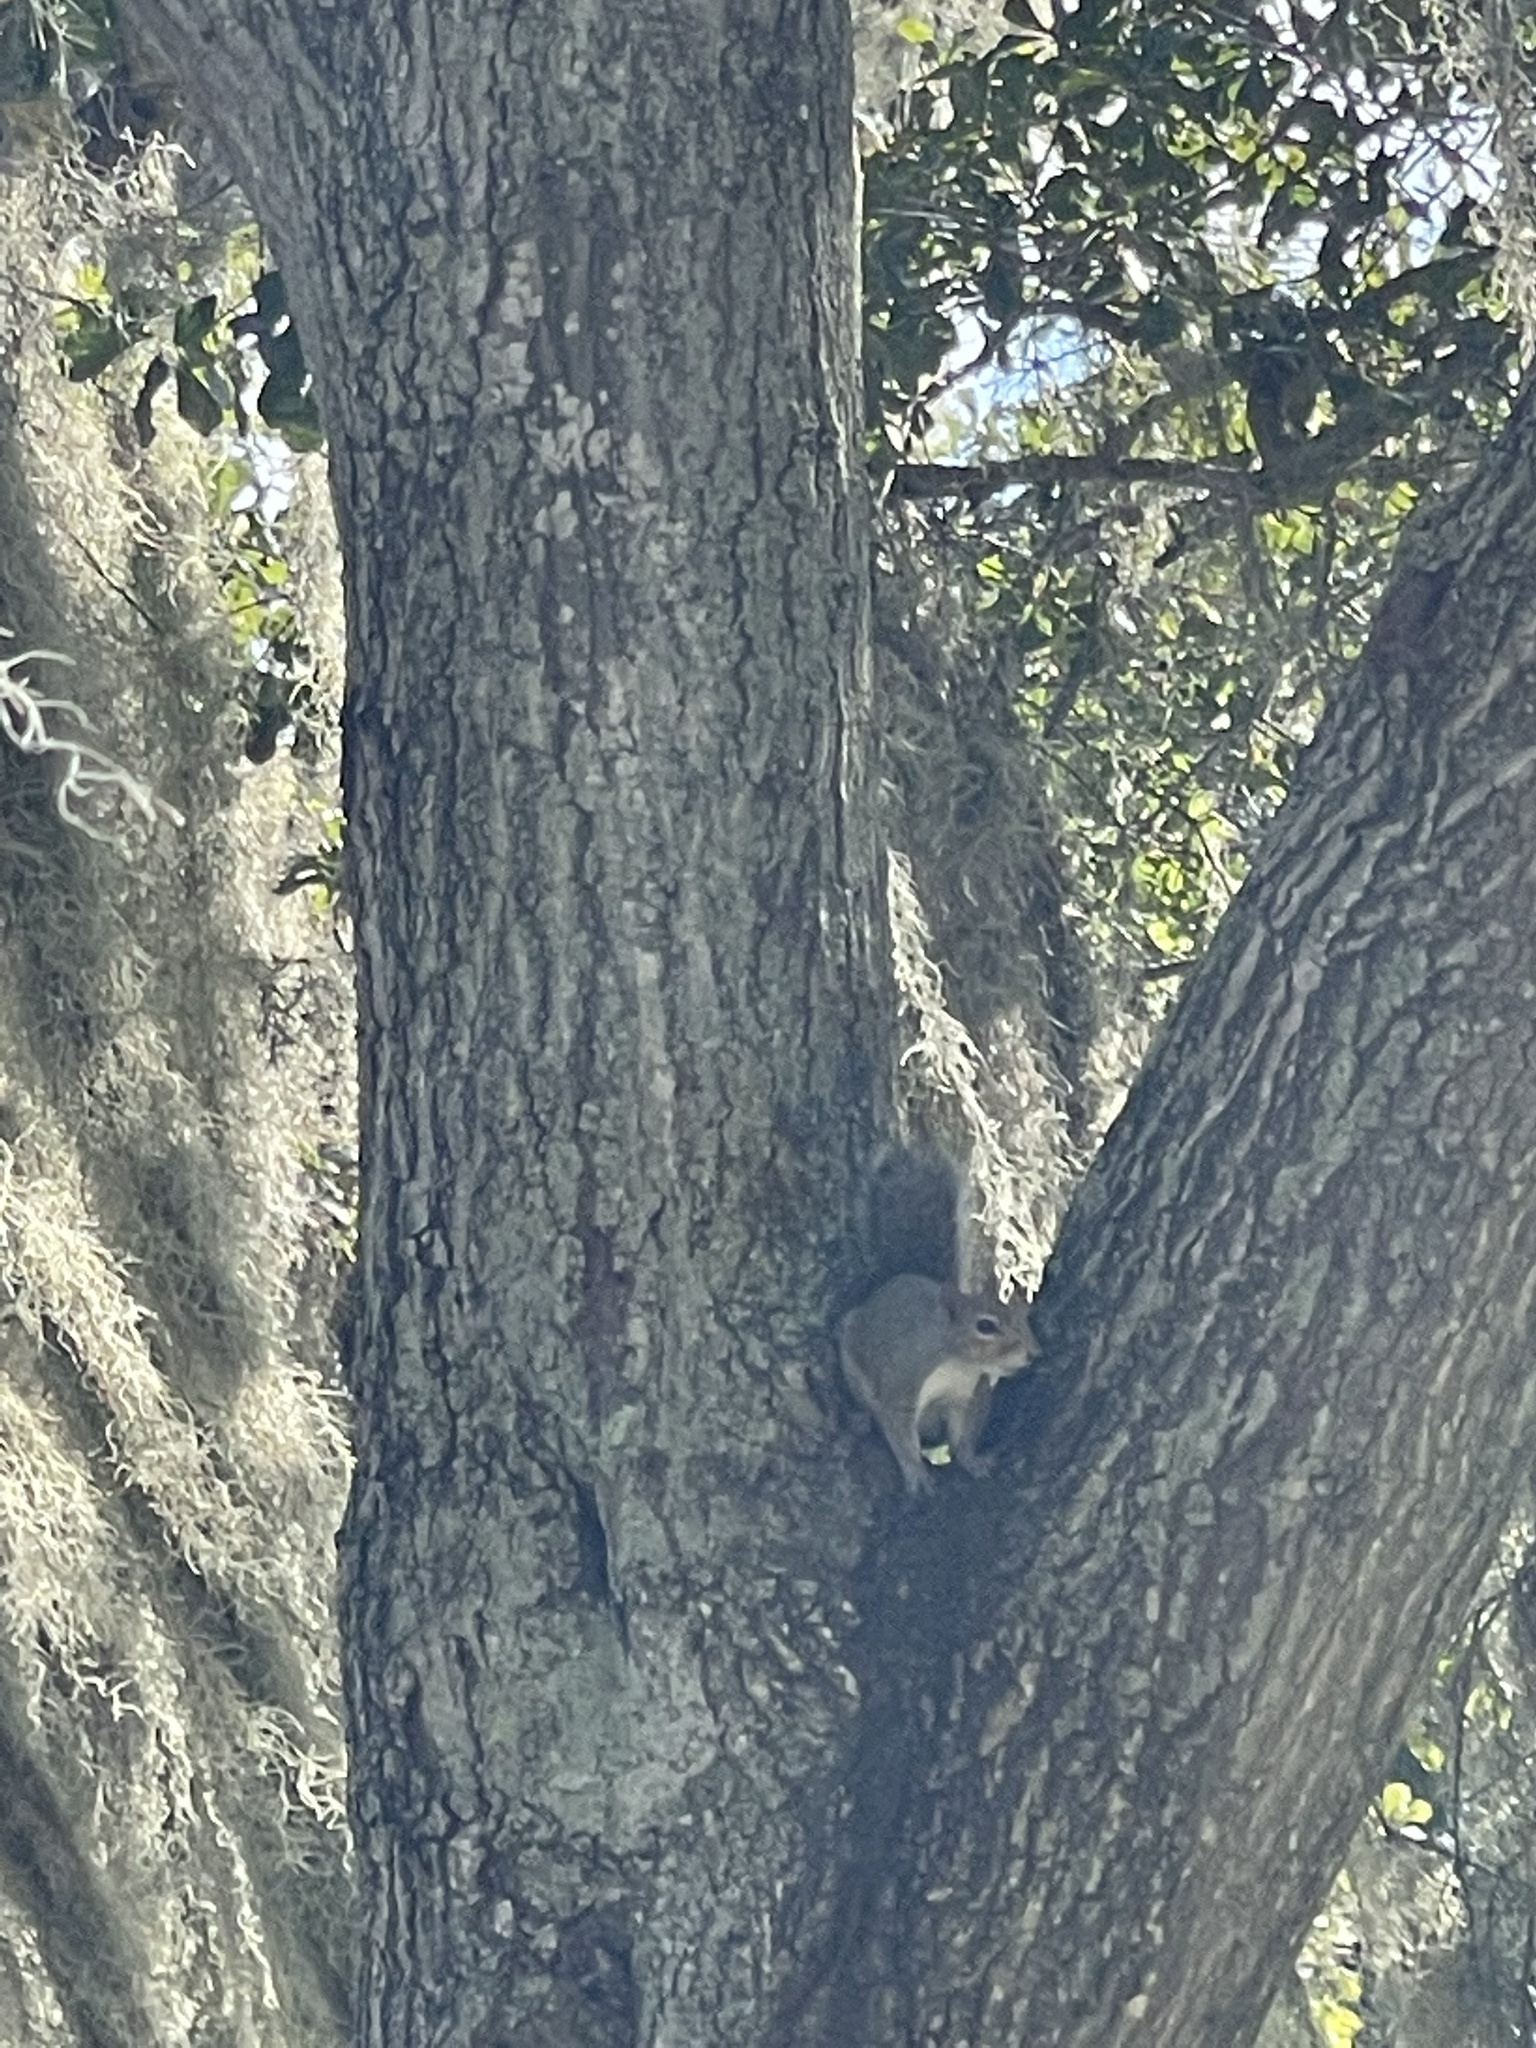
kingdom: Animalia
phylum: Chordata
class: Mammalia
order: Rodentia
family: Sciuridae
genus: Sciurus
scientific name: Sciurus carolinensis
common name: Eastern gray squirrel
